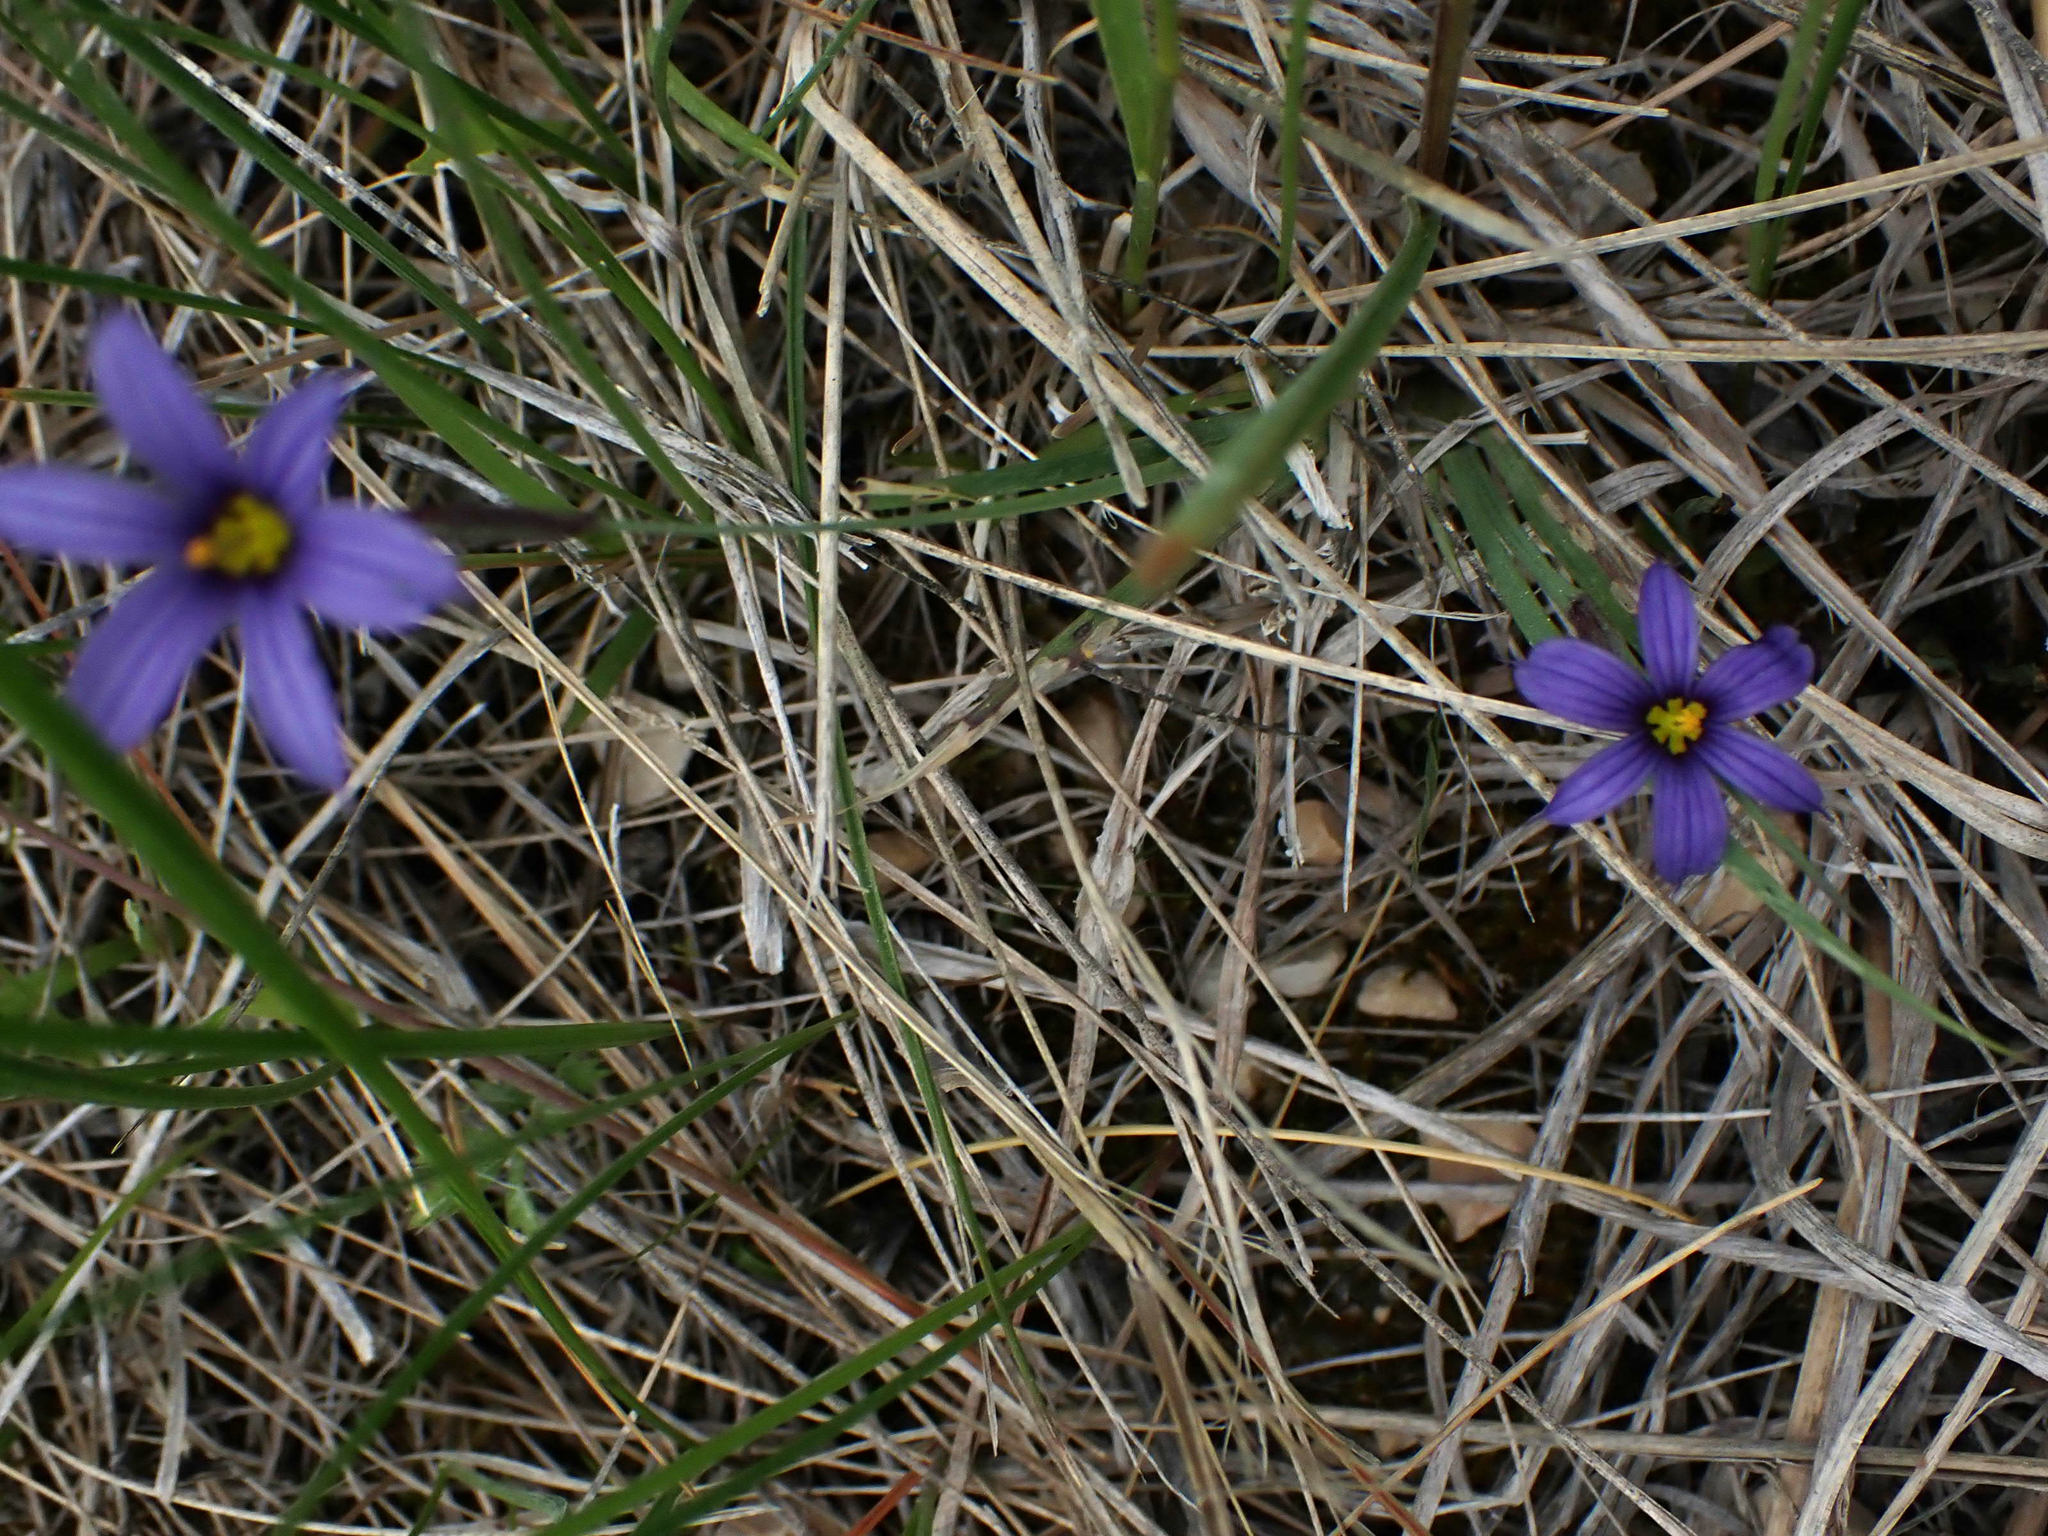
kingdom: Plantae
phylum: Tracheophyta
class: Liliopsida
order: Asparagales
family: Iridaceae
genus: Sisyrinchium
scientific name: Sisyrinchium montanum
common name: American blue-eyed-grass
